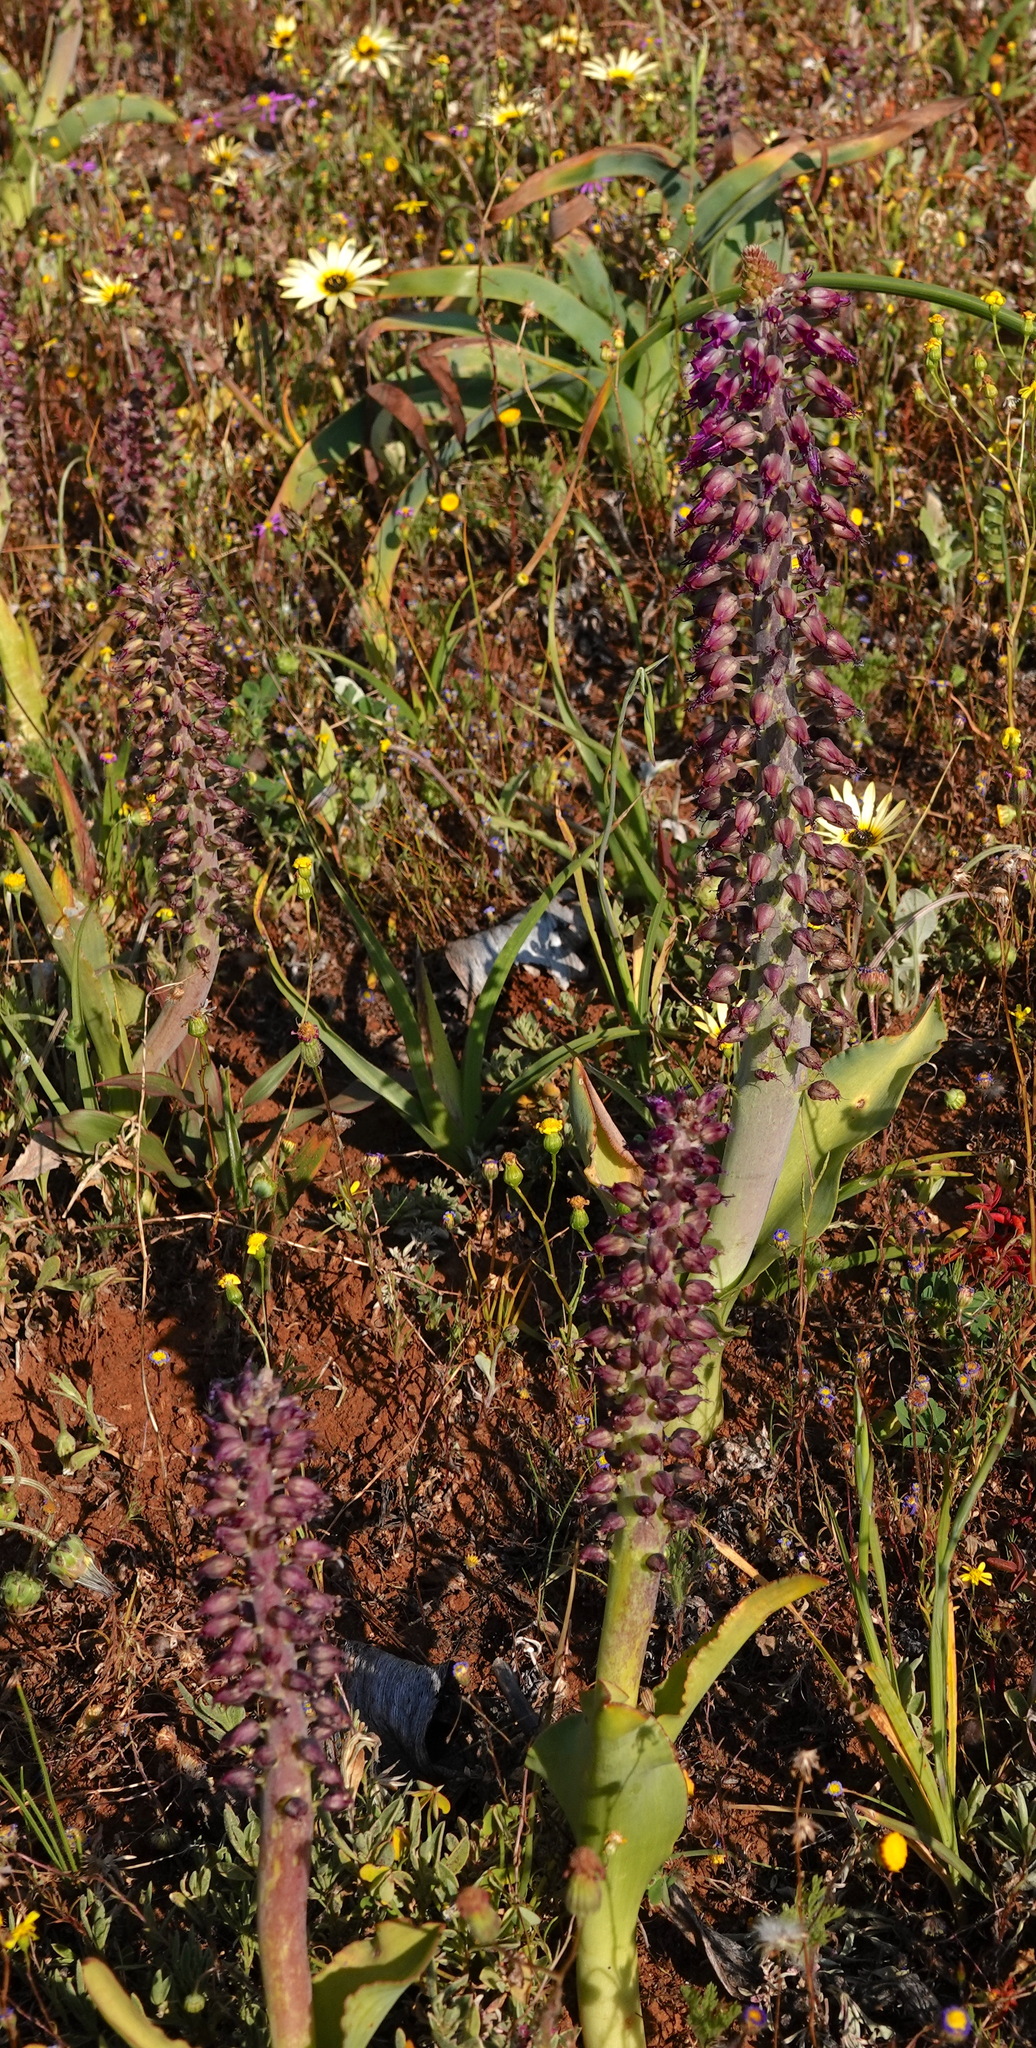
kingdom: Plantae
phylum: Tracheophyta
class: Liliopsida
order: Asparagales
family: Asparagaceae
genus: Lachenalia
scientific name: Lachenalia violacea
